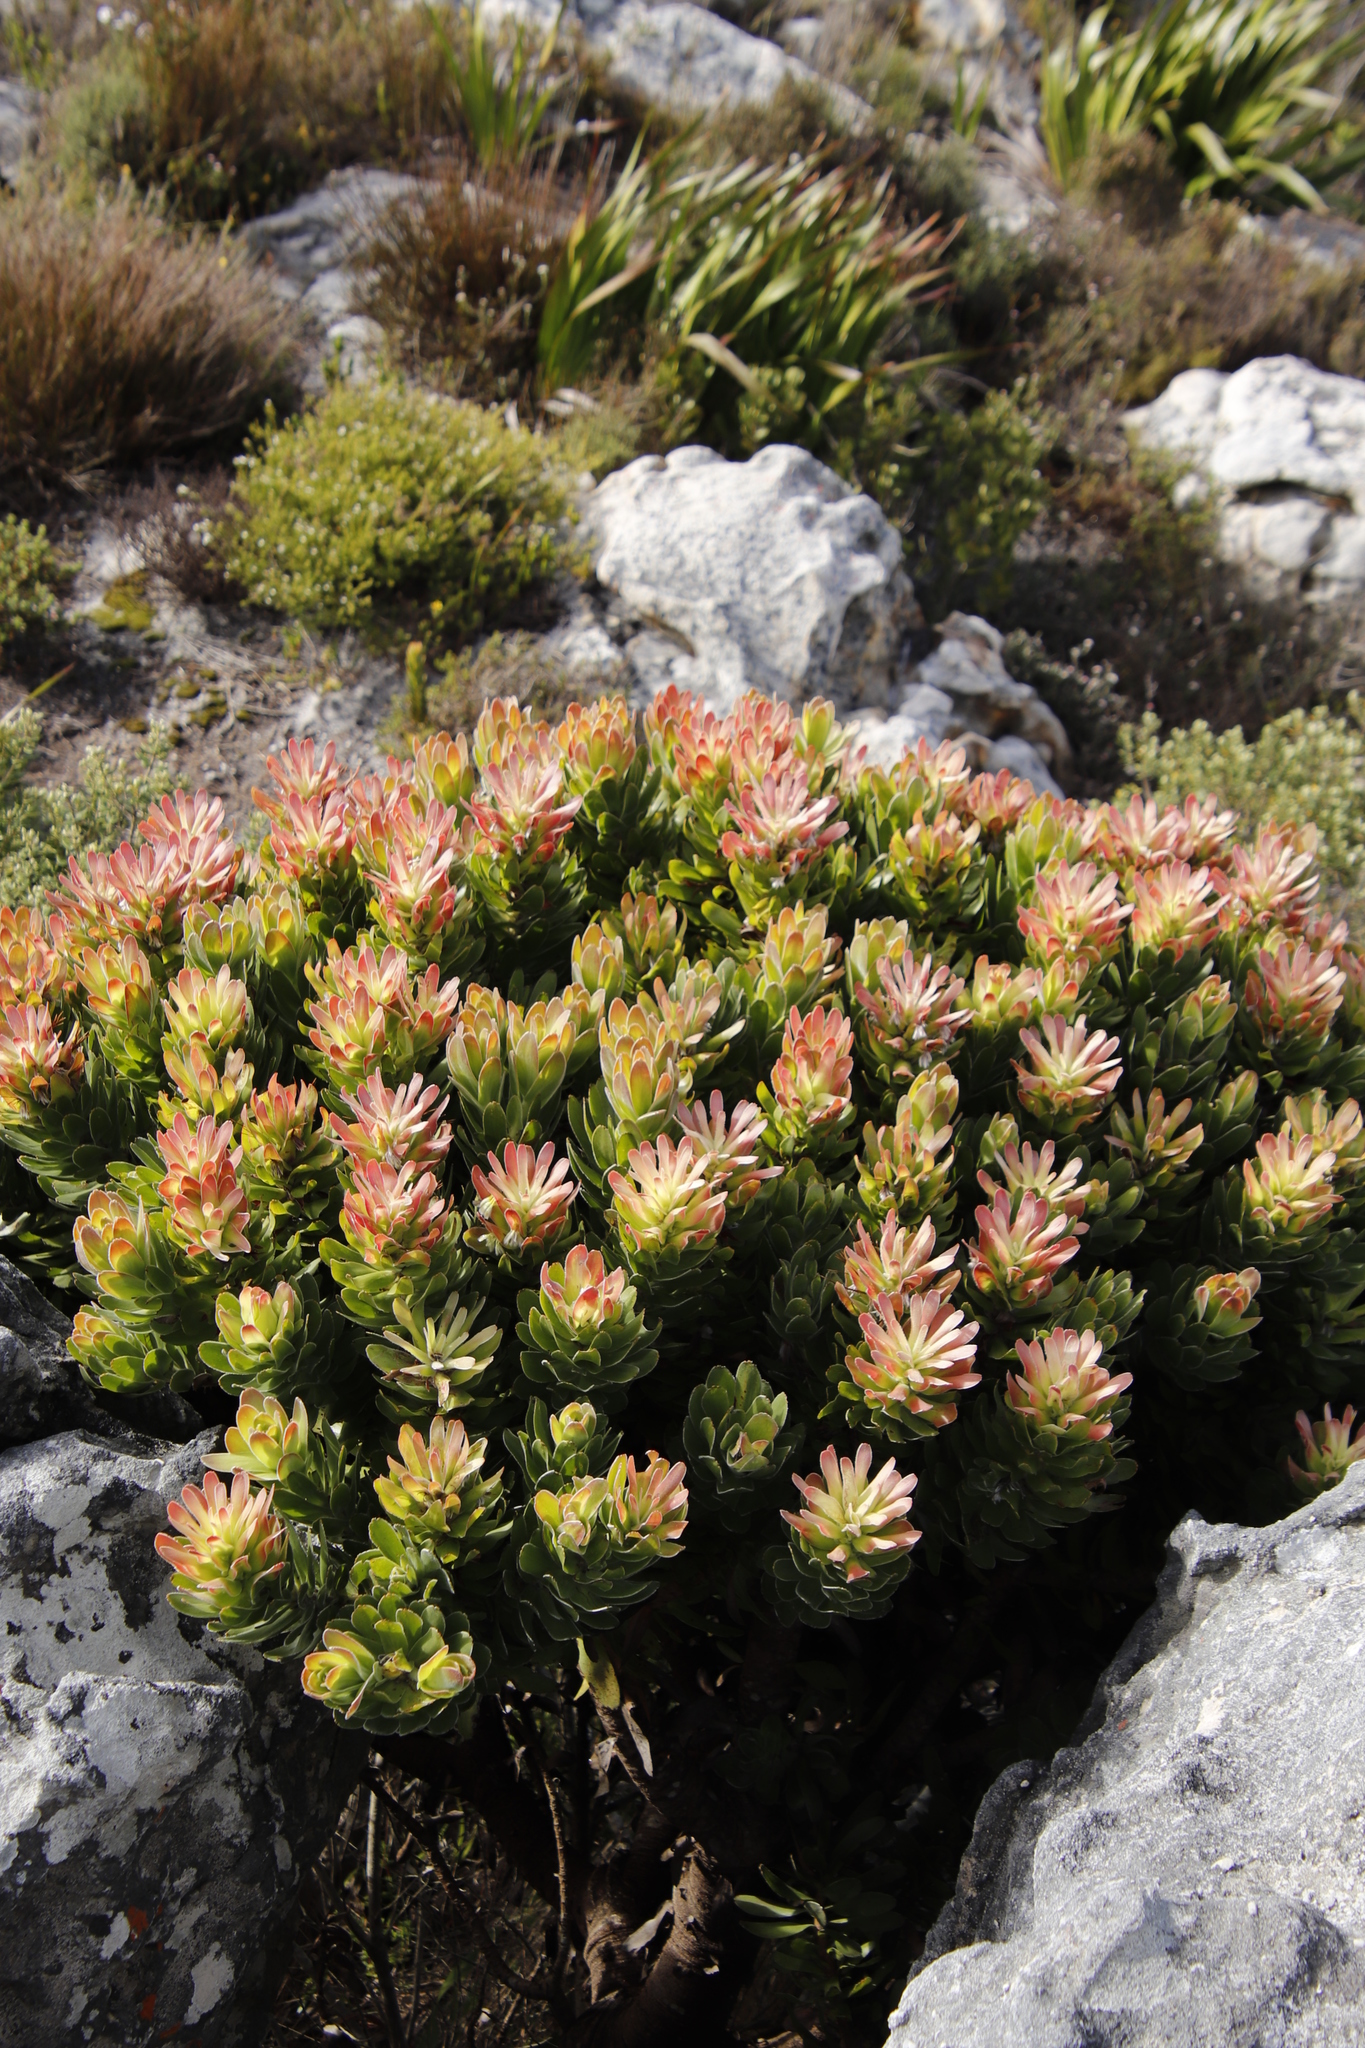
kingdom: Plantae
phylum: Tracheophyta
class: Magnoliopsida
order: Proteales
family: Proteaceae
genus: Mimetes
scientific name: Mimetes fimbriifolius
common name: Fringed bottlebrush
